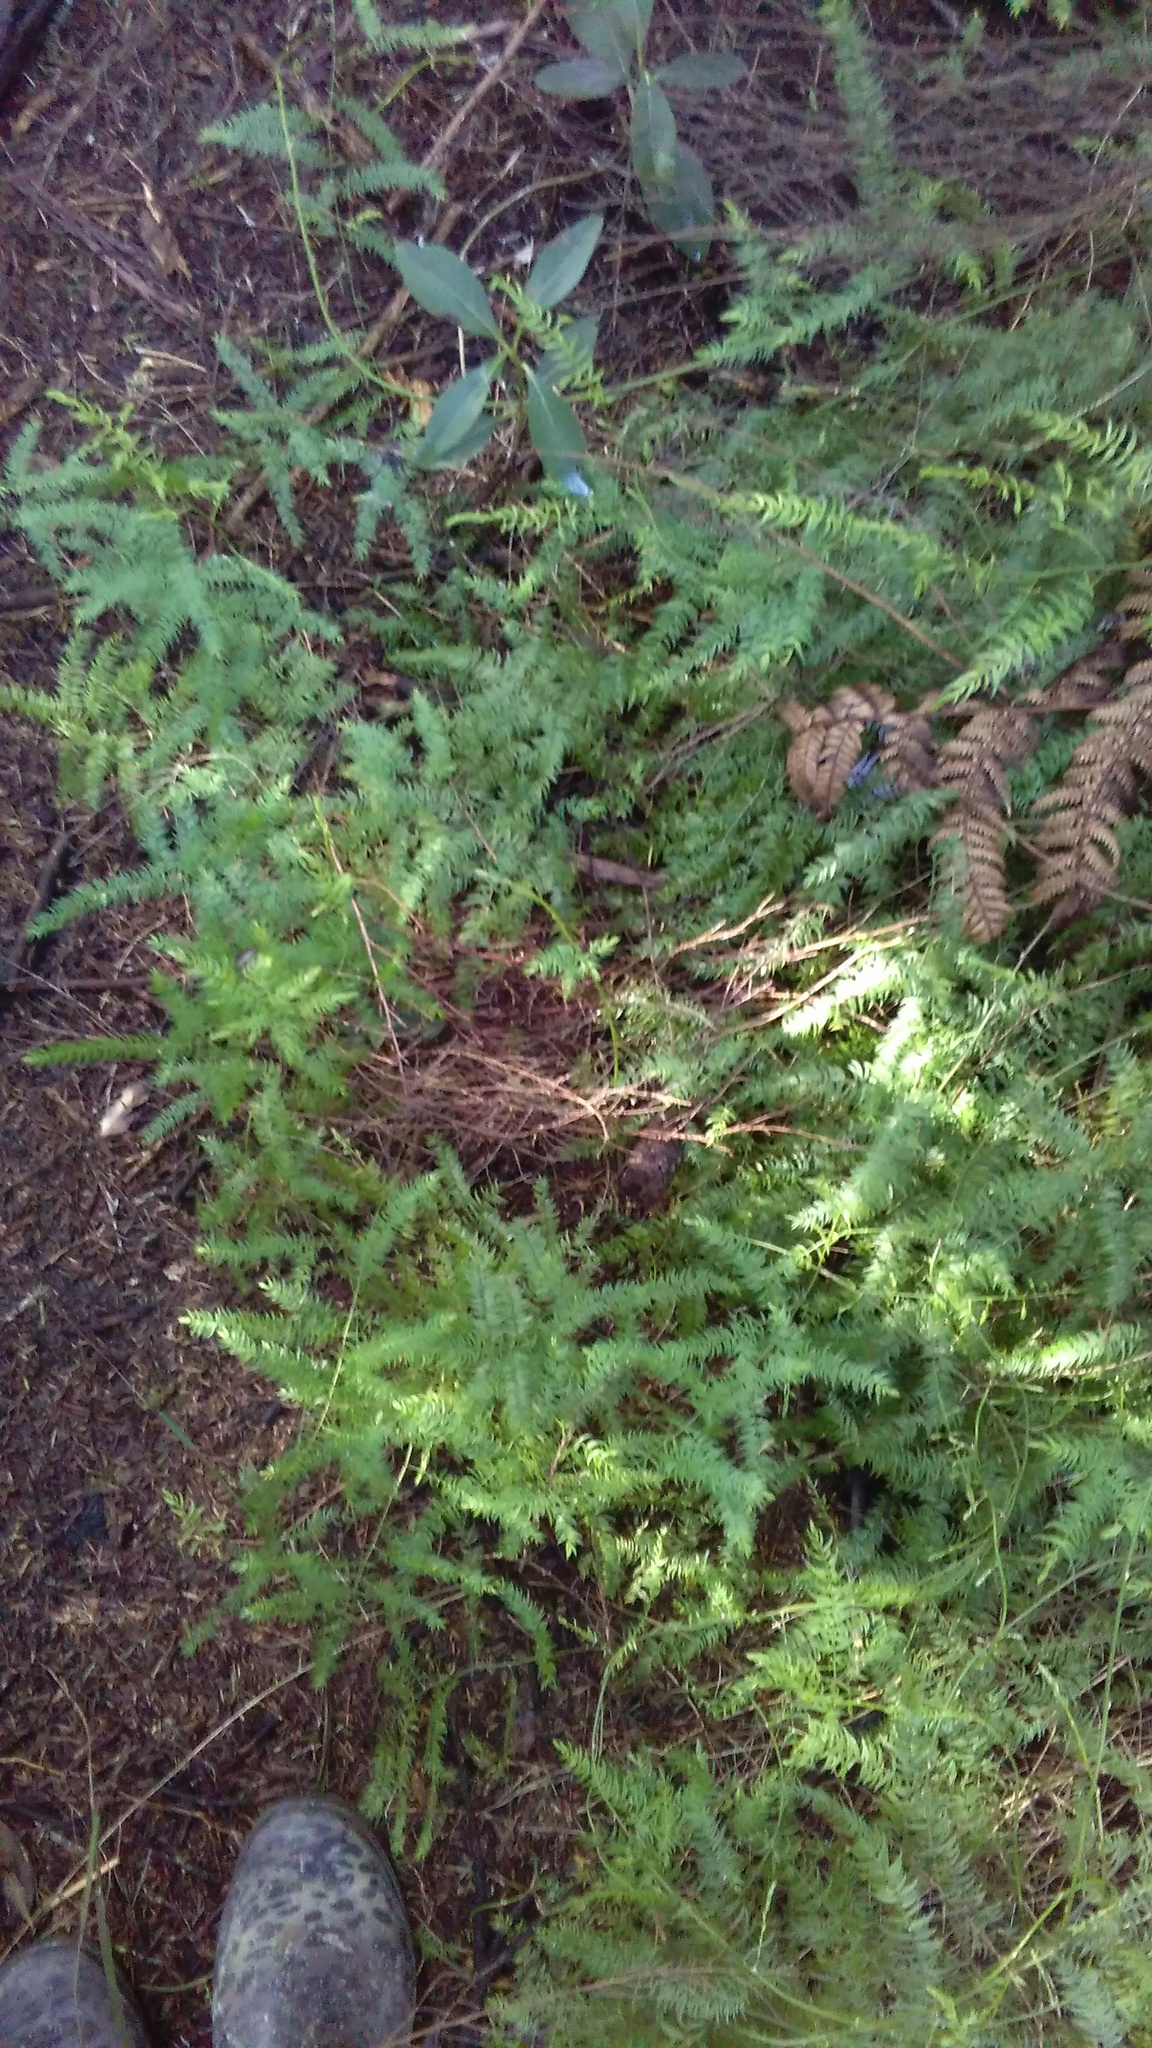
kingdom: Plantae
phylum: Tracheophyta
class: Liliopsida
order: Asparagales
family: Asparagaceae
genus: Asparagus
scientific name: Asparagus scandens
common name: Asparagus-fern
